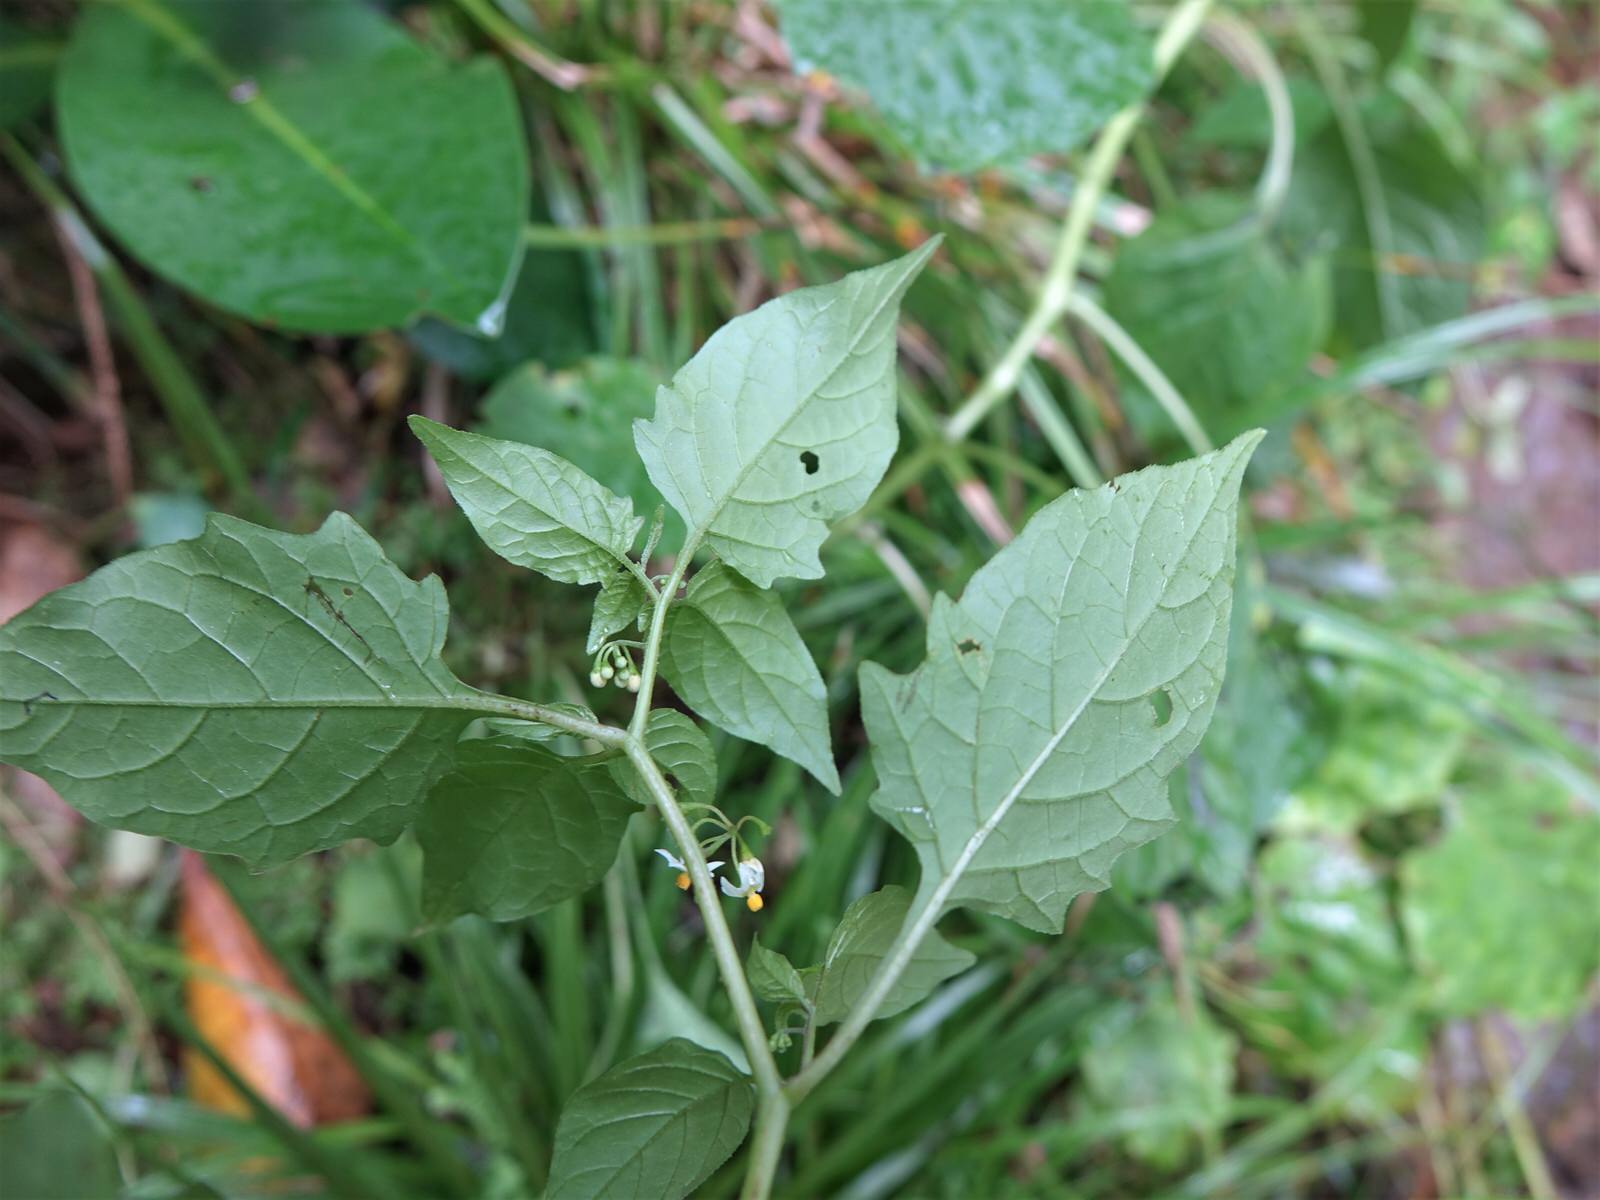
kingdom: Plantae
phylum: Tracheophyta
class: Magnoliopsida
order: Solanales
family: Solanaceae
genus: Solanum
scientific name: Solanum americanum
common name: American black nightshade
